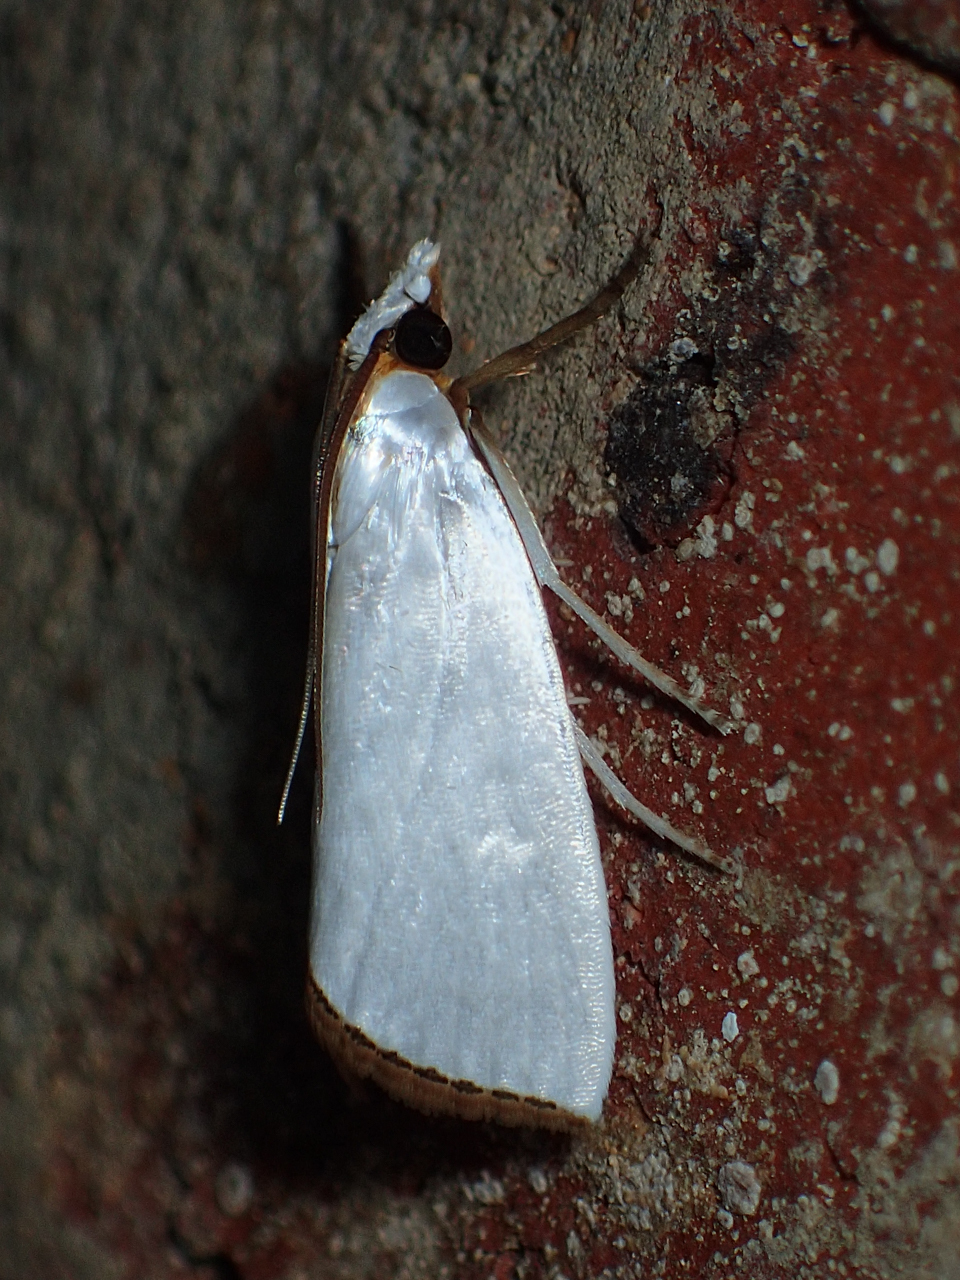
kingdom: Animalia
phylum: Arthropoda
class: Insecta
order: Lepidoptera
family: Crambidae
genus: Argyria
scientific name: Argyria nivalis
